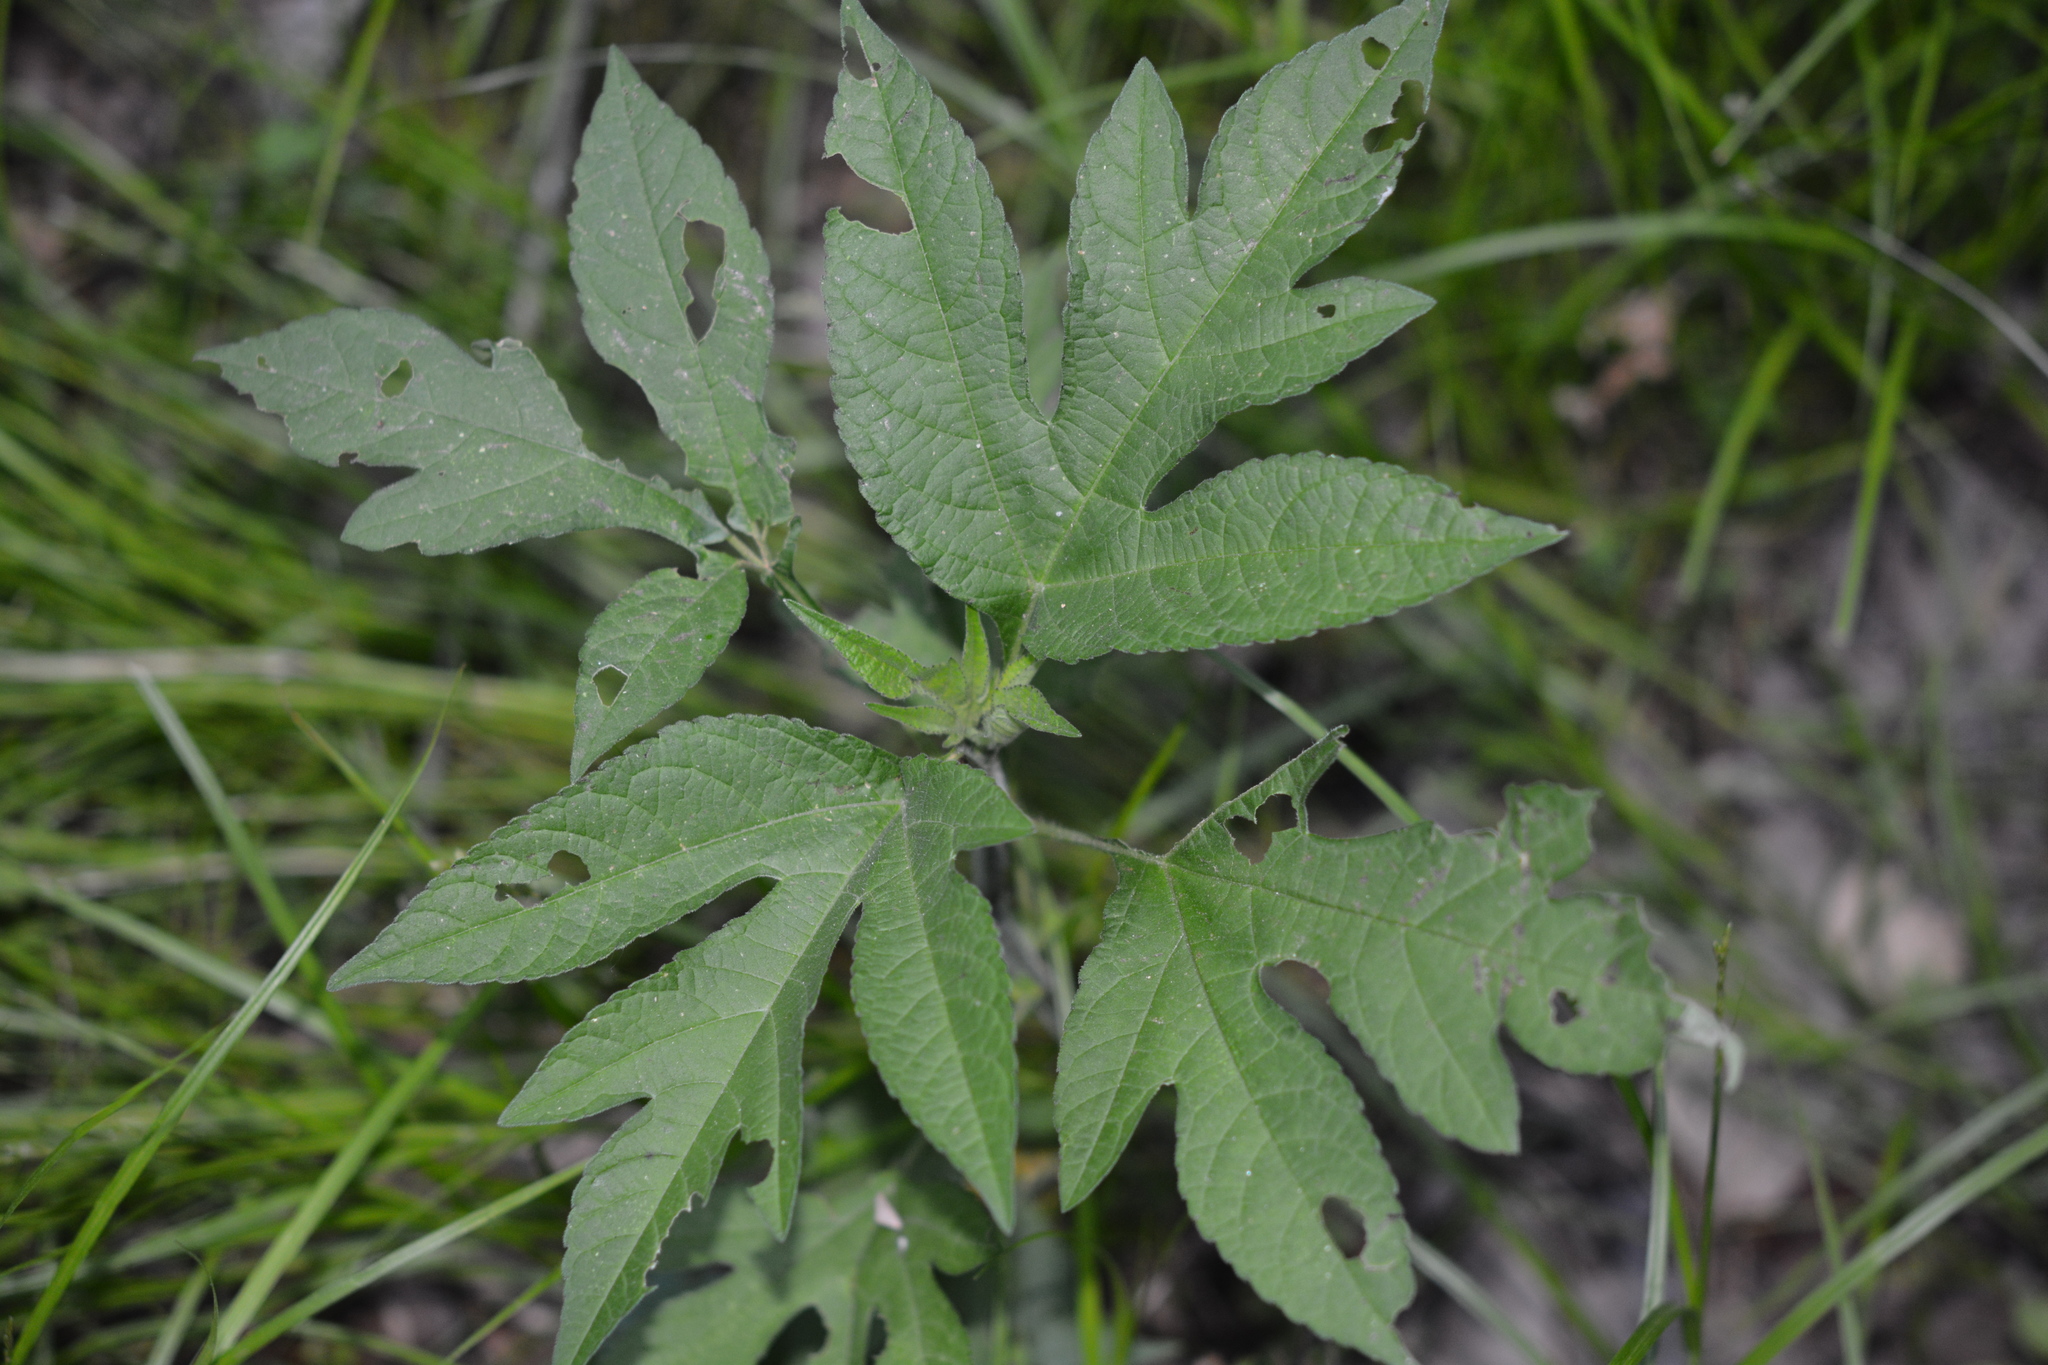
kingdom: Plantae
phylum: Tracheophyta
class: Magnoliopsida
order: Asterales
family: Asteraceae
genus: Ambrosia
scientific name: Ambrosia trifida
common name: Giant ragweed
